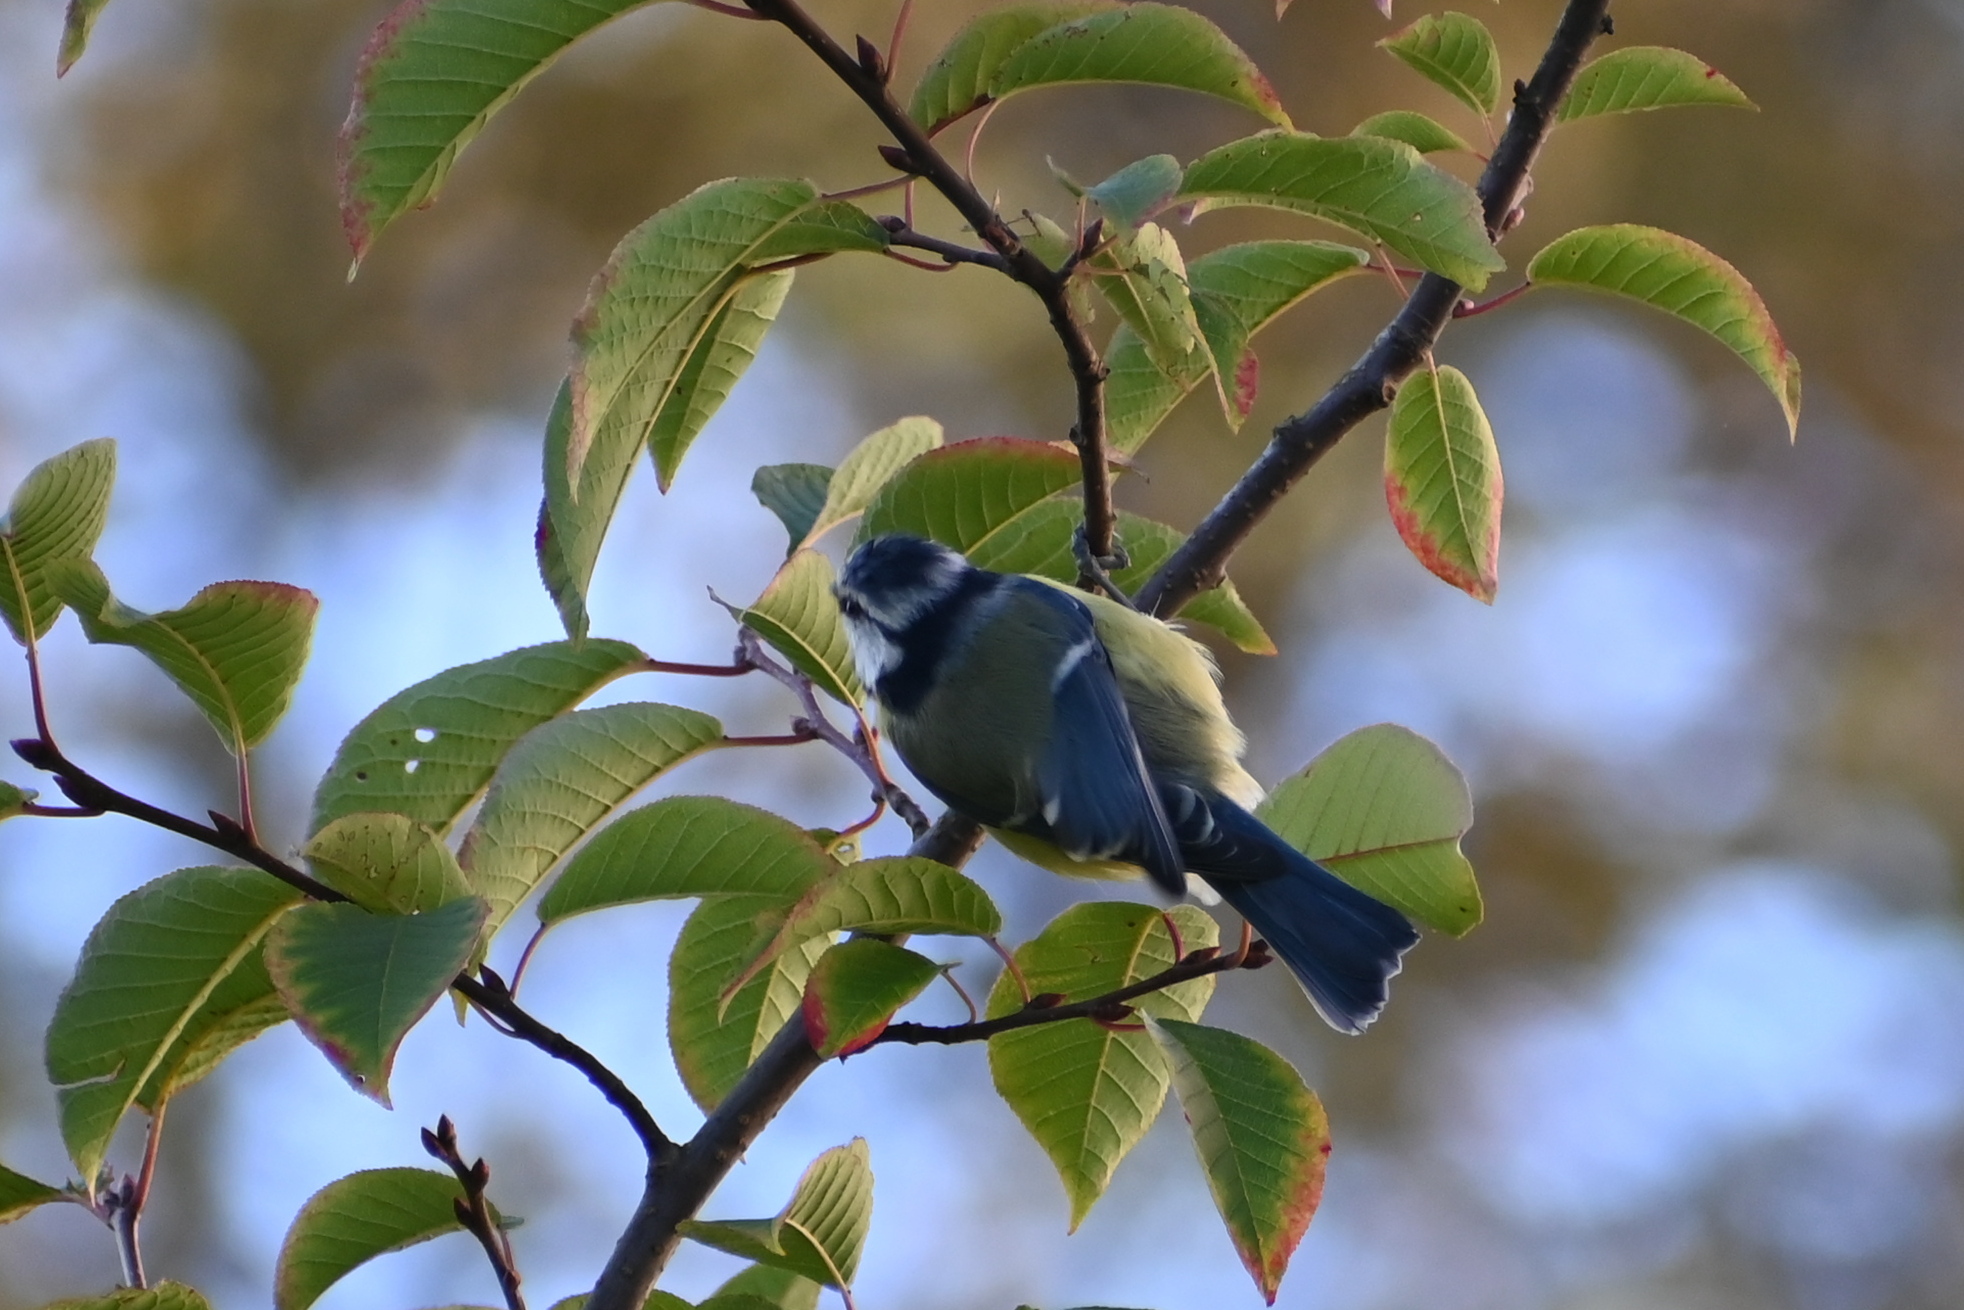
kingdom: Animalia
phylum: Chordata
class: Aves
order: Passeriformes
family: Paridae
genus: Cyanistes
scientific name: Cyanistes caeruleus
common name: Eurasian blue tit
